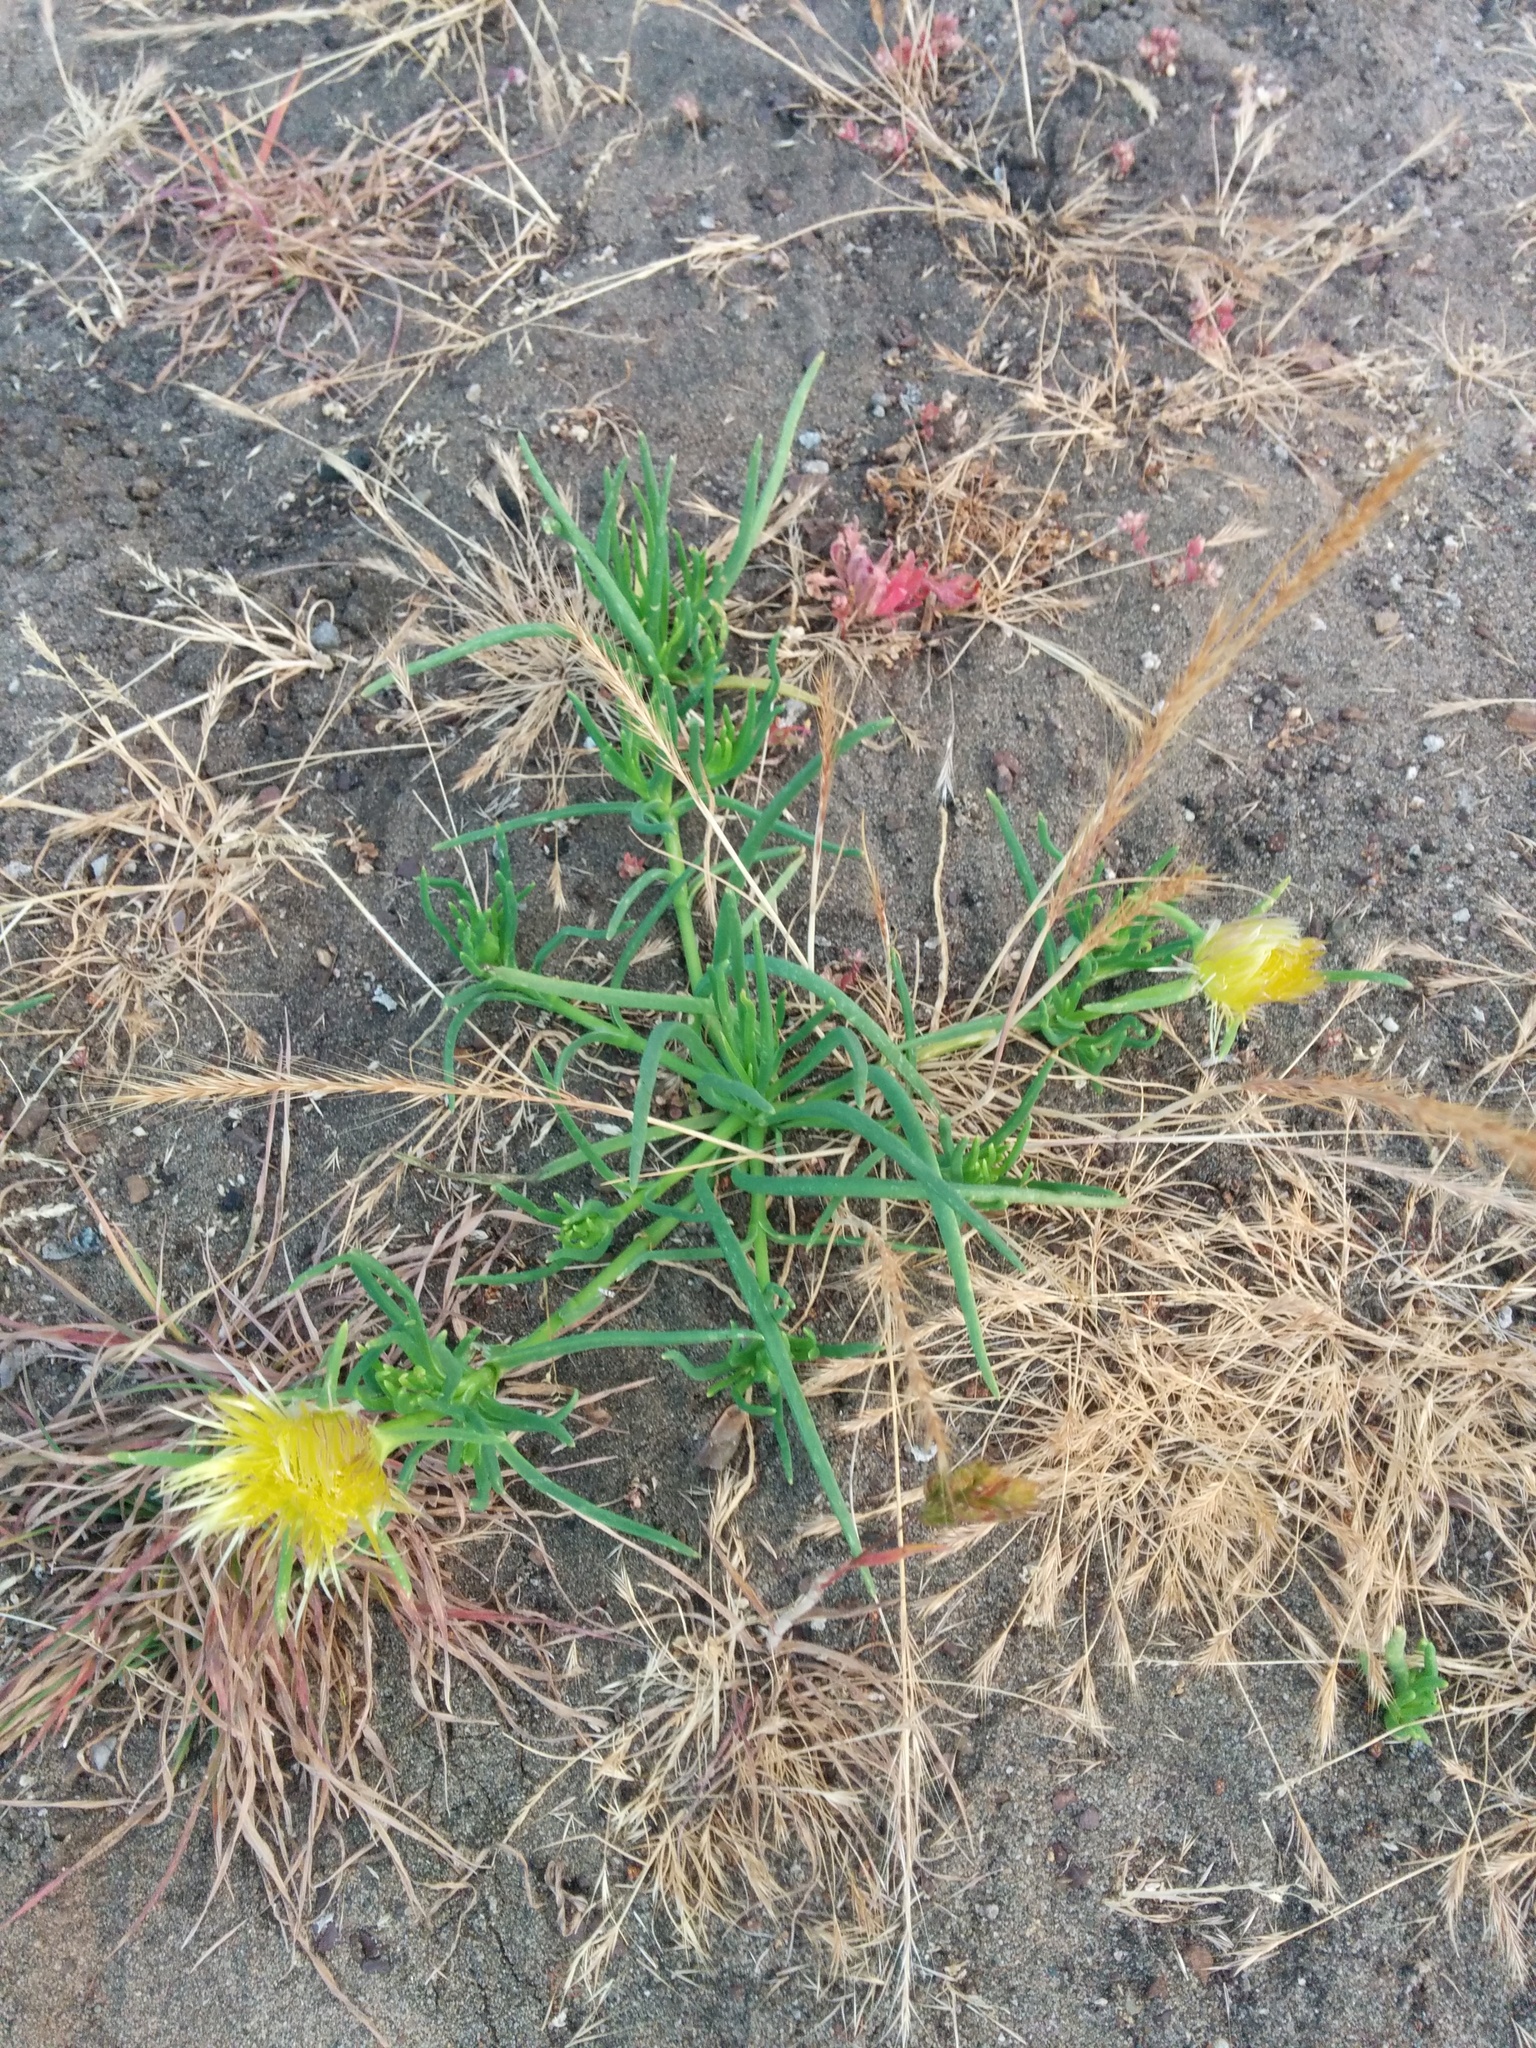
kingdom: Plantae
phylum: Tracheophyta
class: Magnoliopsida
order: Caryophyllales
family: Aizoaceae
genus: Conicosia
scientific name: Conicosia pugioniformis
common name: Narrow-leaved iceplant
